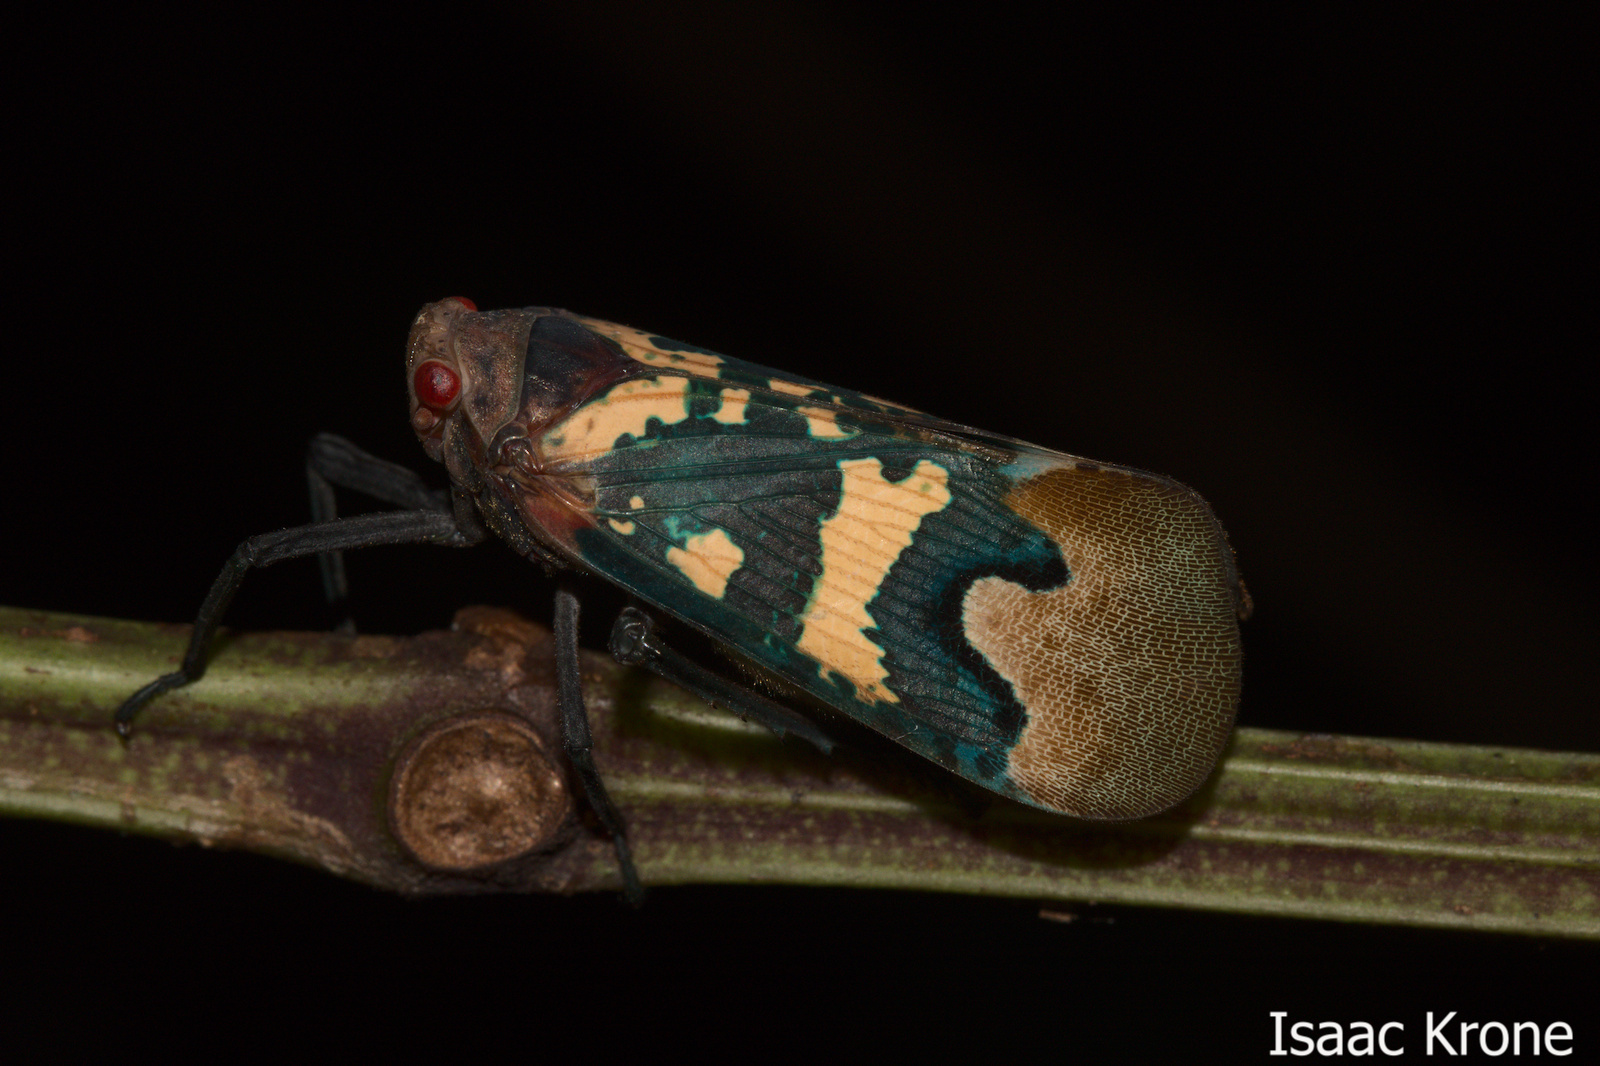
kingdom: Animalia
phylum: Arthropoda
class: Insecta
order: Hemiptera
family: Fulgoridae
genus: Scamandra
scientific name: Scamandra diana
